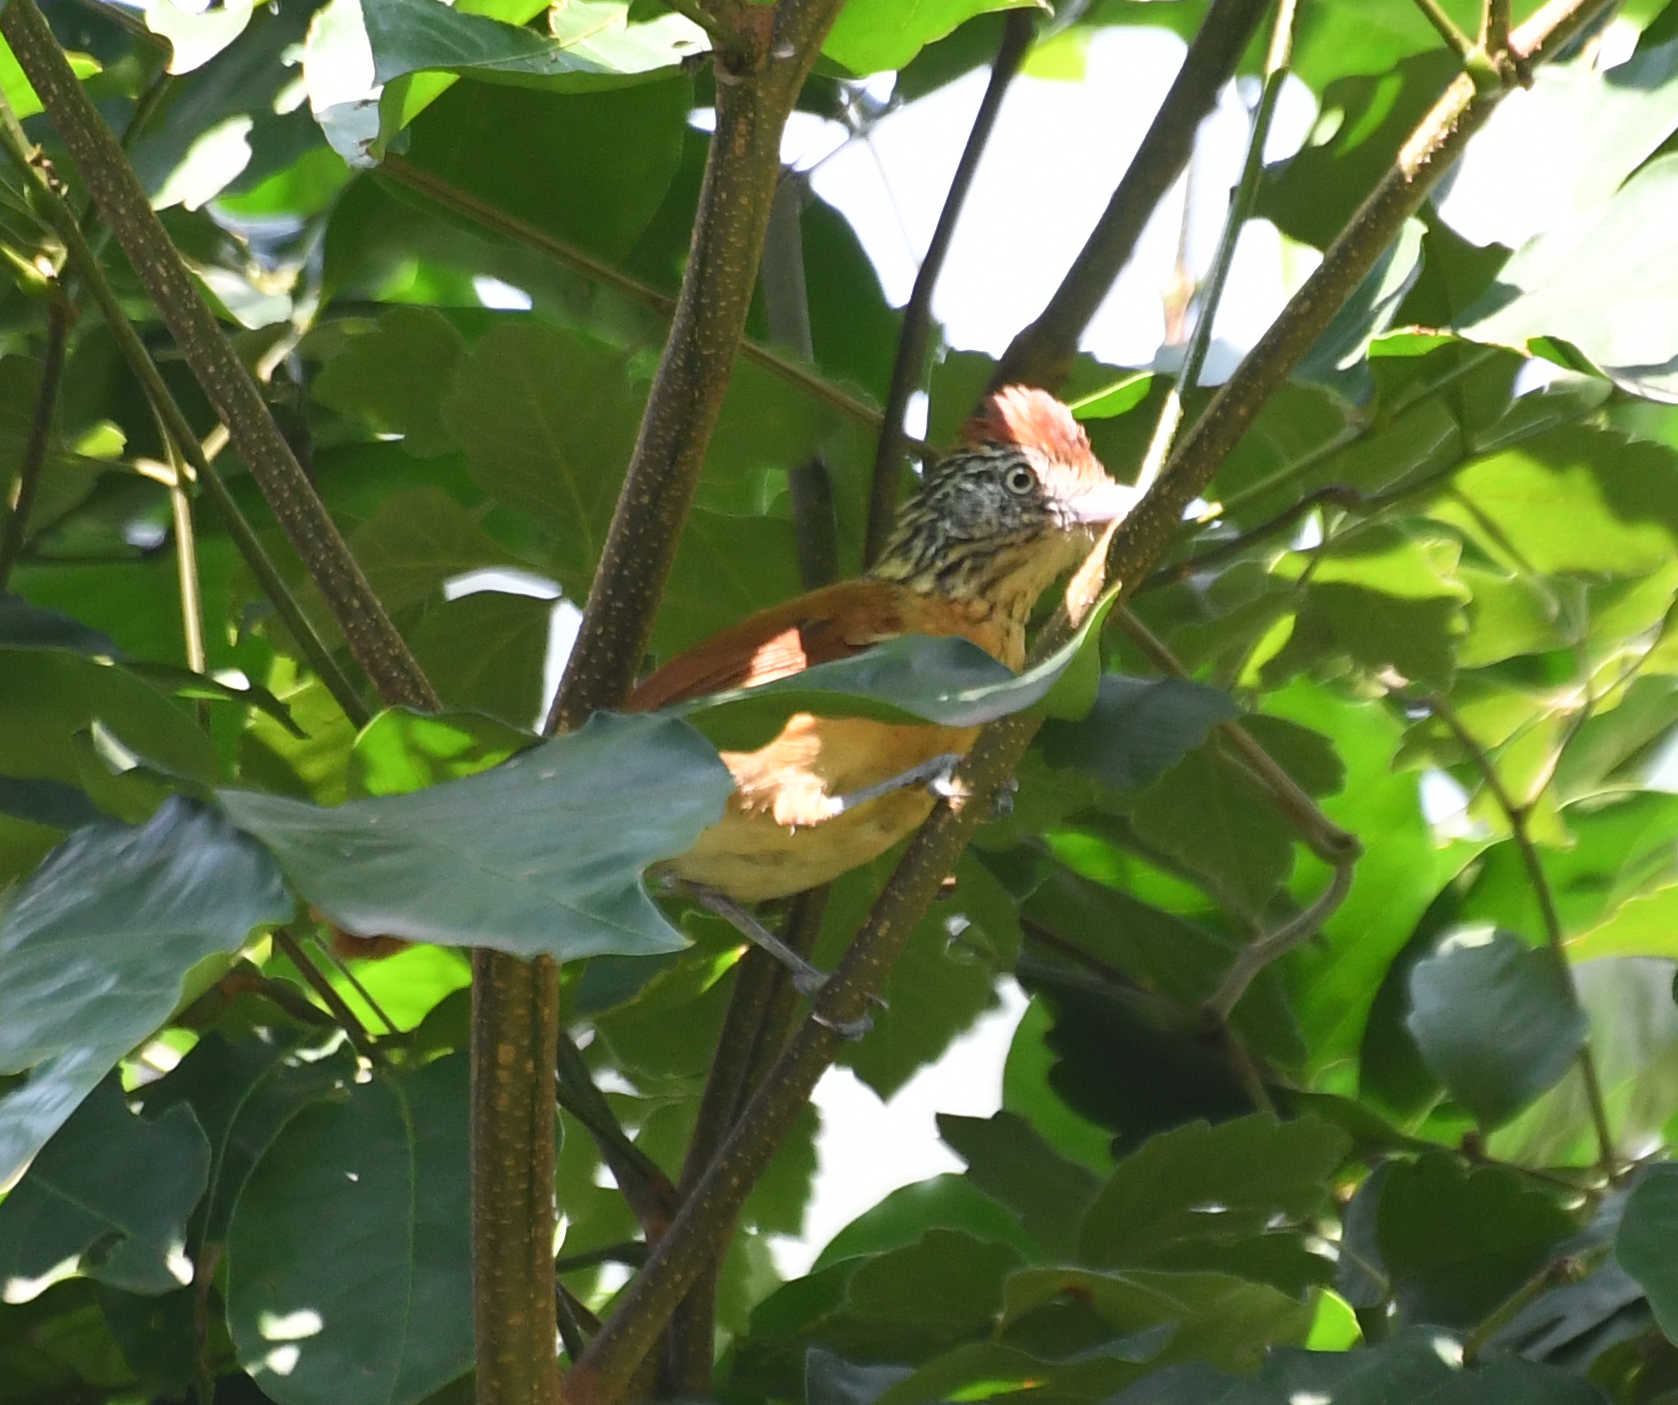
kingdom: Animalia
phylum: Chordata
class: Aves
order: Passeriformes
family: Thamnophilidae
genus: Thamnophilus
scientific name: Thamnophilus doliatus
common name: Barred antshrike
